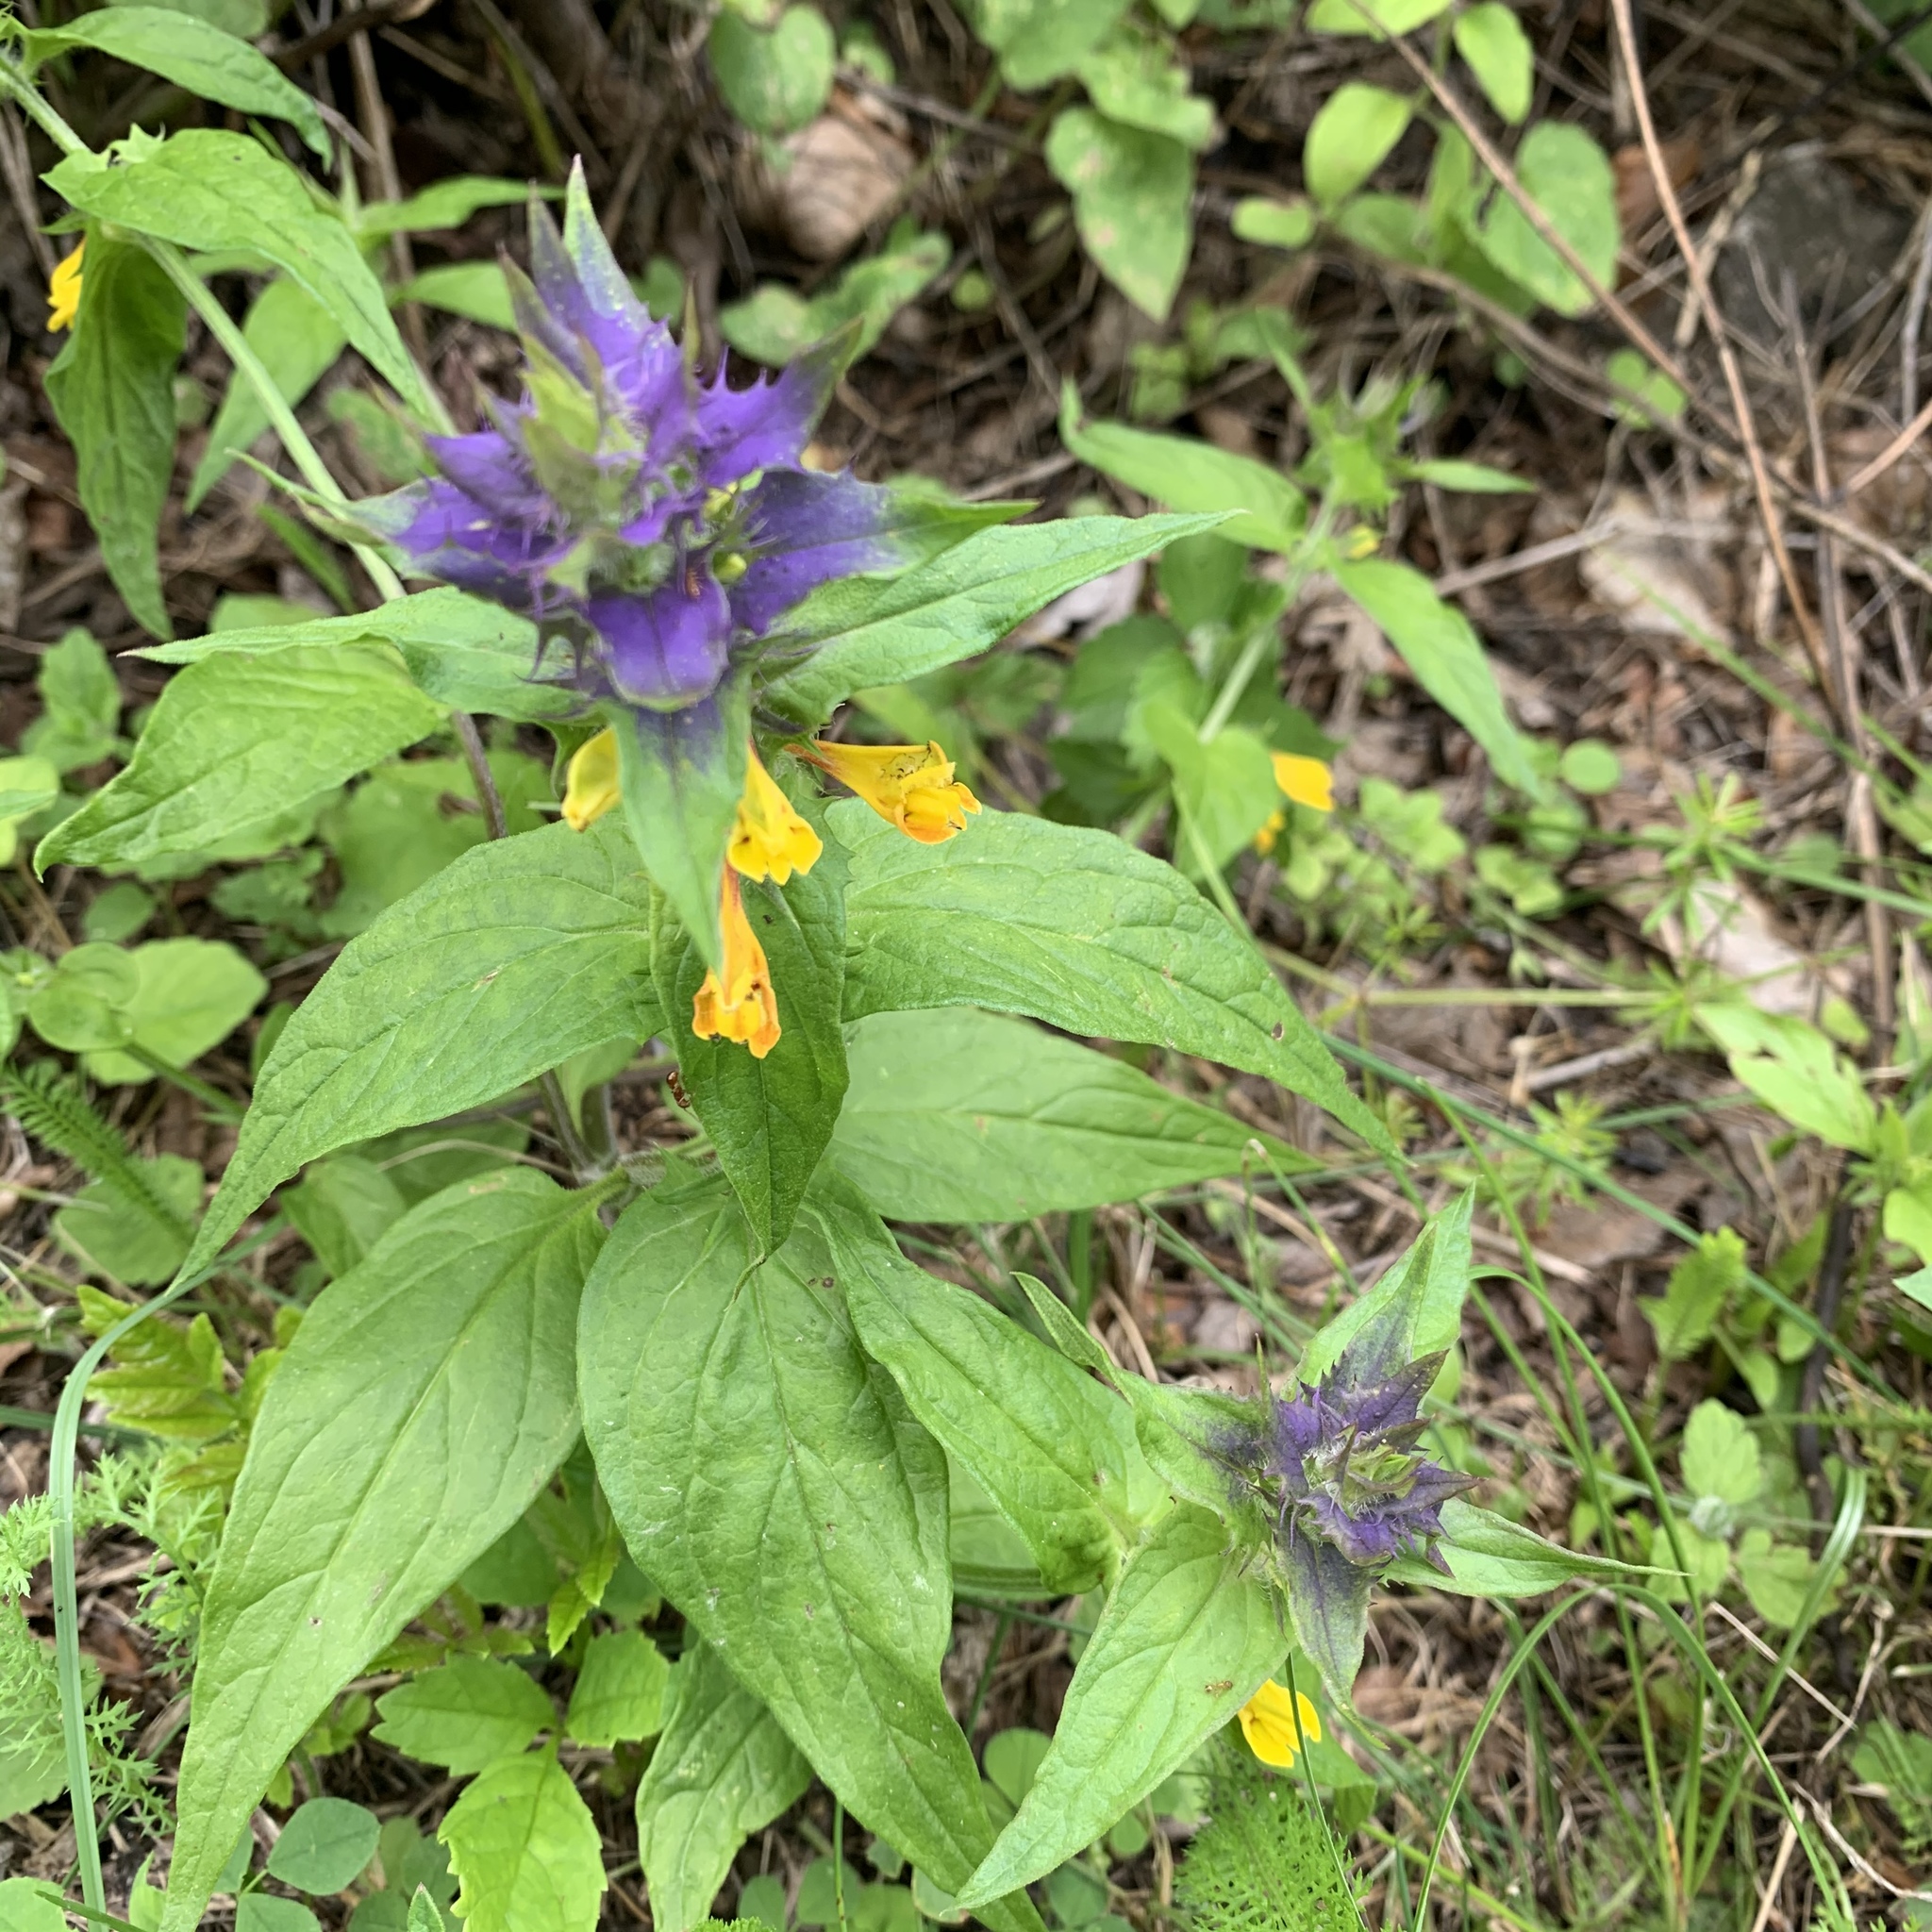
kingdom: Plantae
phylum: Tracheophyta
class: Magnoliopsida
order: Lamiales
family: Orobanchaceae
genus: Melampyrum
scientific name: Melampyrum nemorosum
